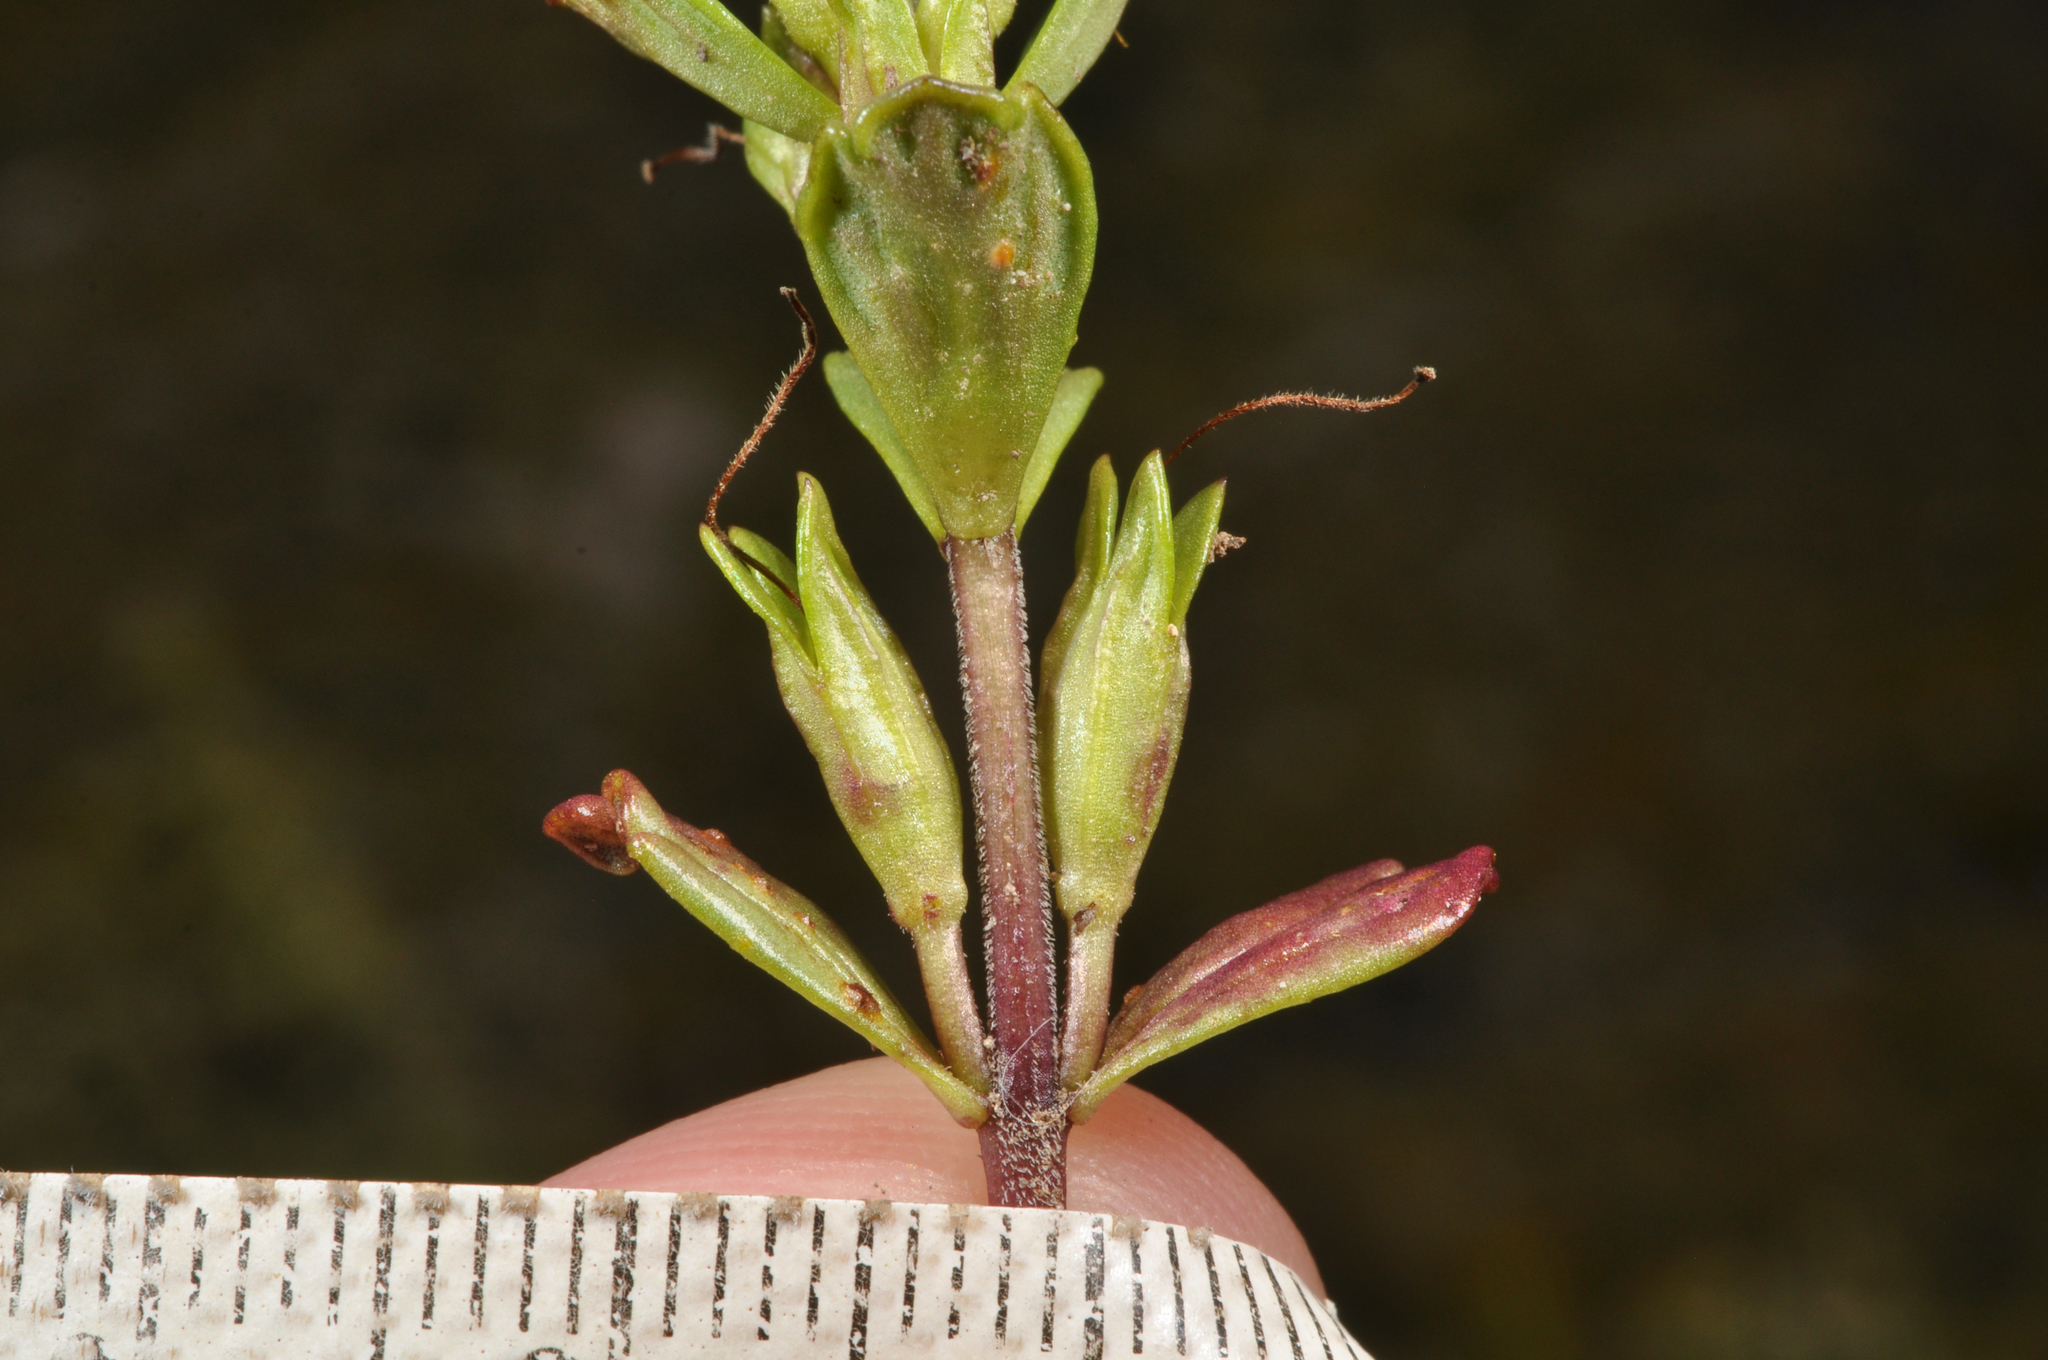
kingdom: Plantae
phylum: Tracheophyta
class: Magnoliopsida
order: Lamiales
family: Orobanchaceae
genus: Euphrasia
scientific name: Euphrasia laingii
